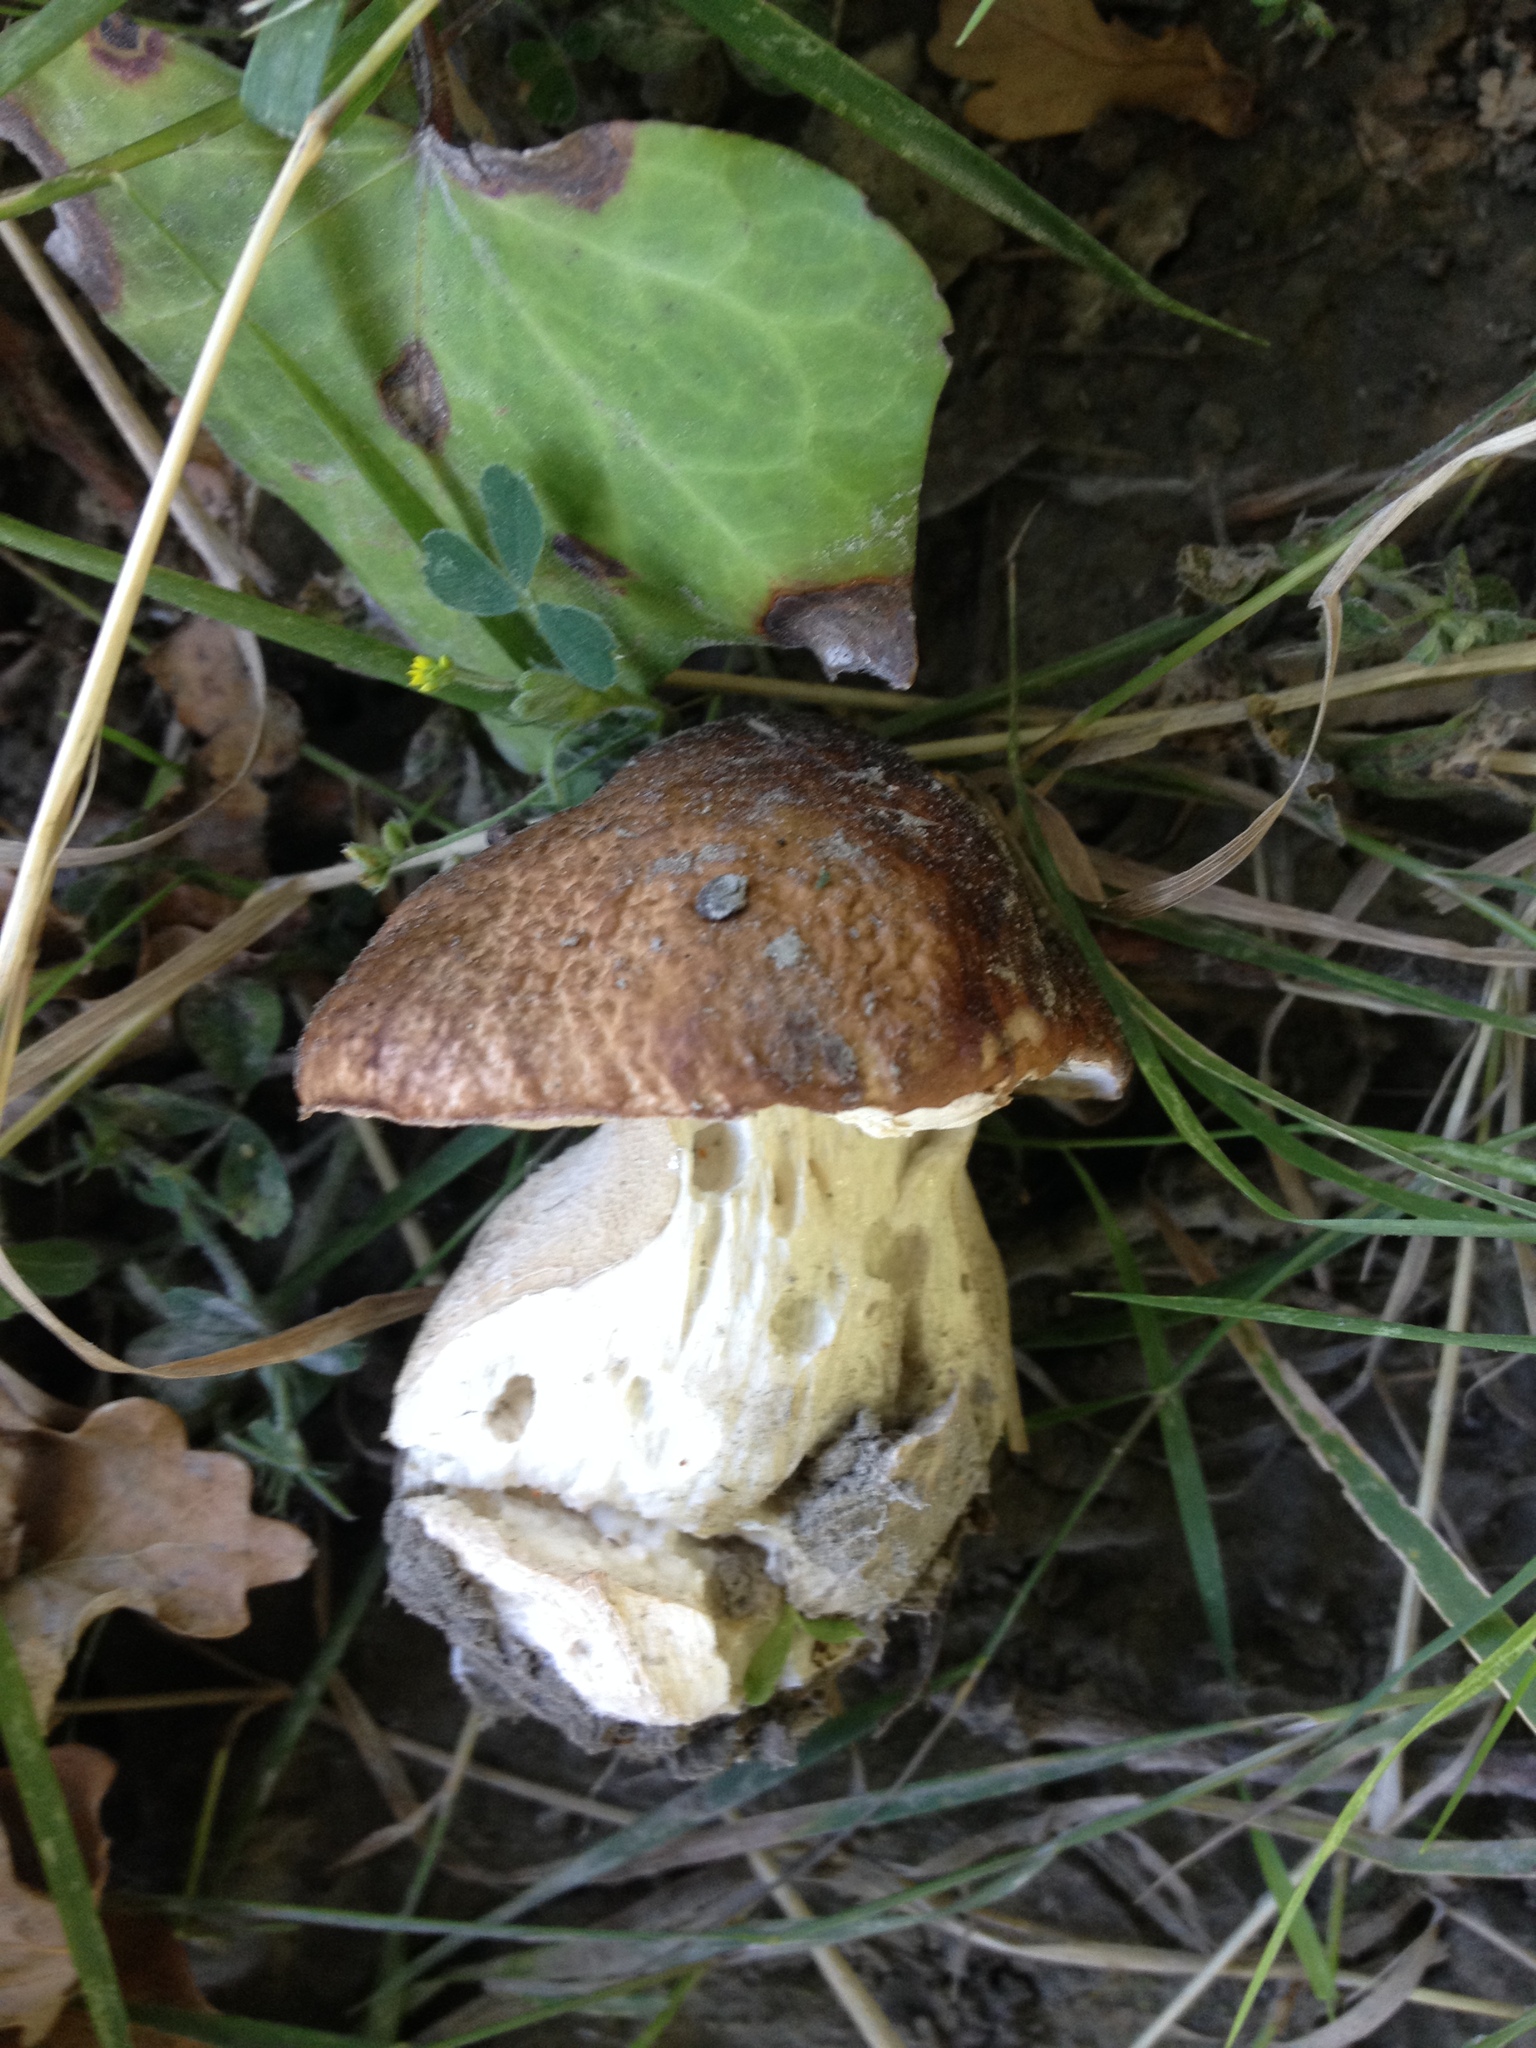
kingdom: Fungi
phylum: Basidiomycota
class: Agaricomycetes
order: Boletales
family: Boletaceae
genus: Boletus
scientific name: Boletus edulis
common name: Cep
